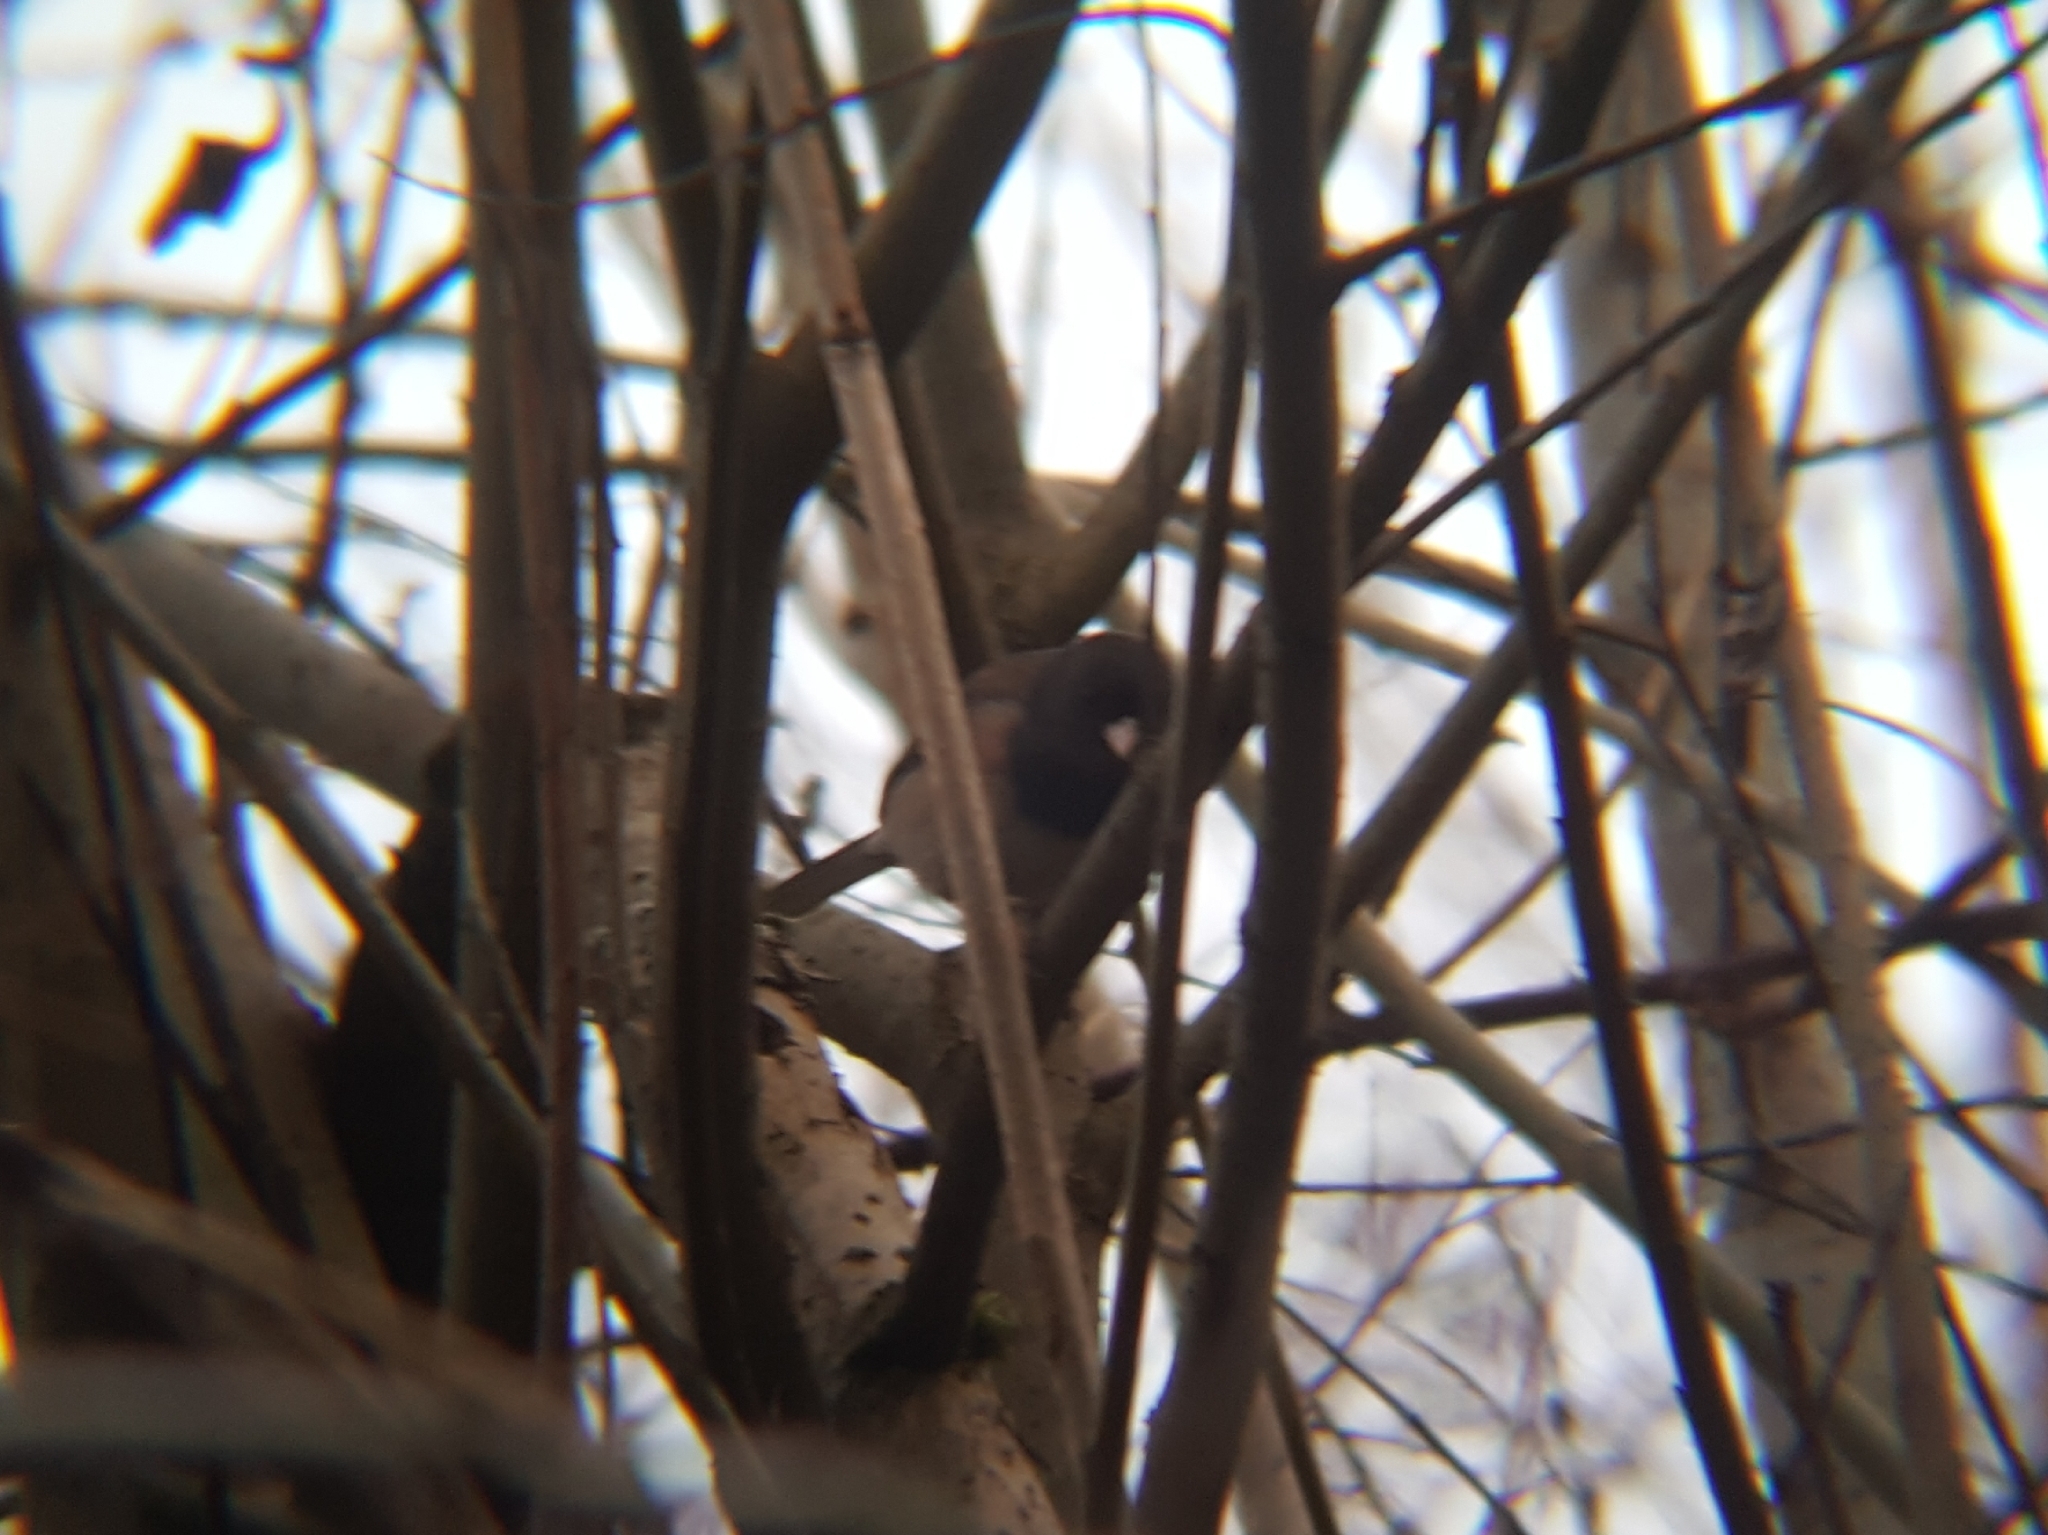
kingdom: Animalia
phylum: Chordata
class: Aves
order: Passeriformes
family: Passerellidae
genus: Junco
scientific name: Junco hyemalis
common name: Dark-eyed junco
